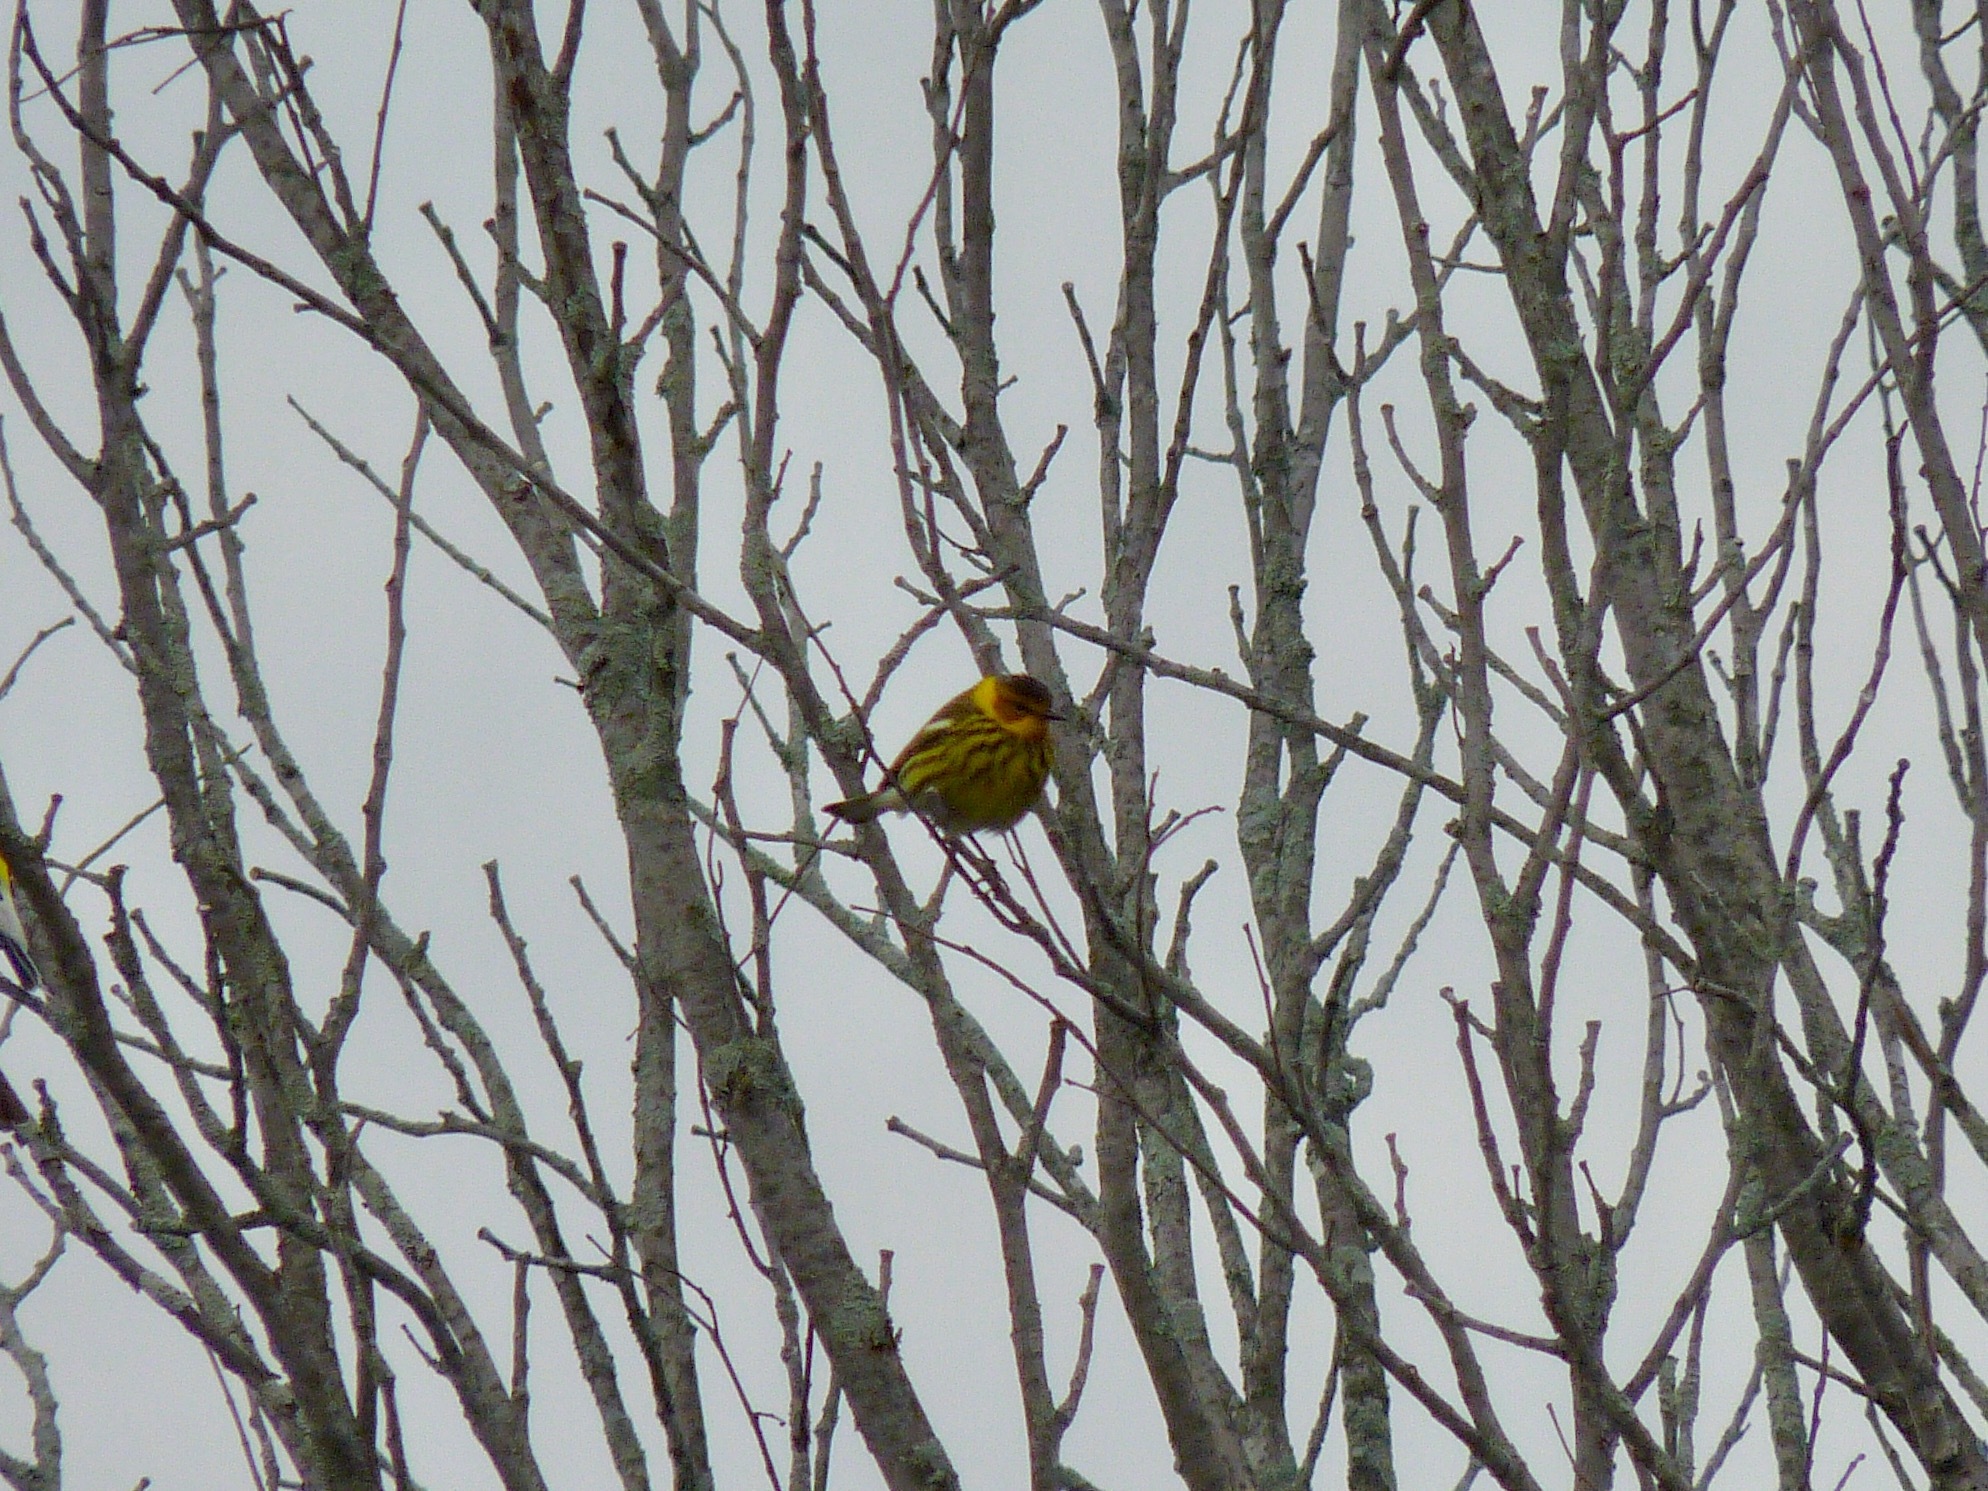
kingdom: Animalia
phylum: Chordata
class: Aves
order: Passeriformes
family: Parulidae
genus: Setophaga
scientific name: Setophaga tigrina
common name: Cape may warbler
